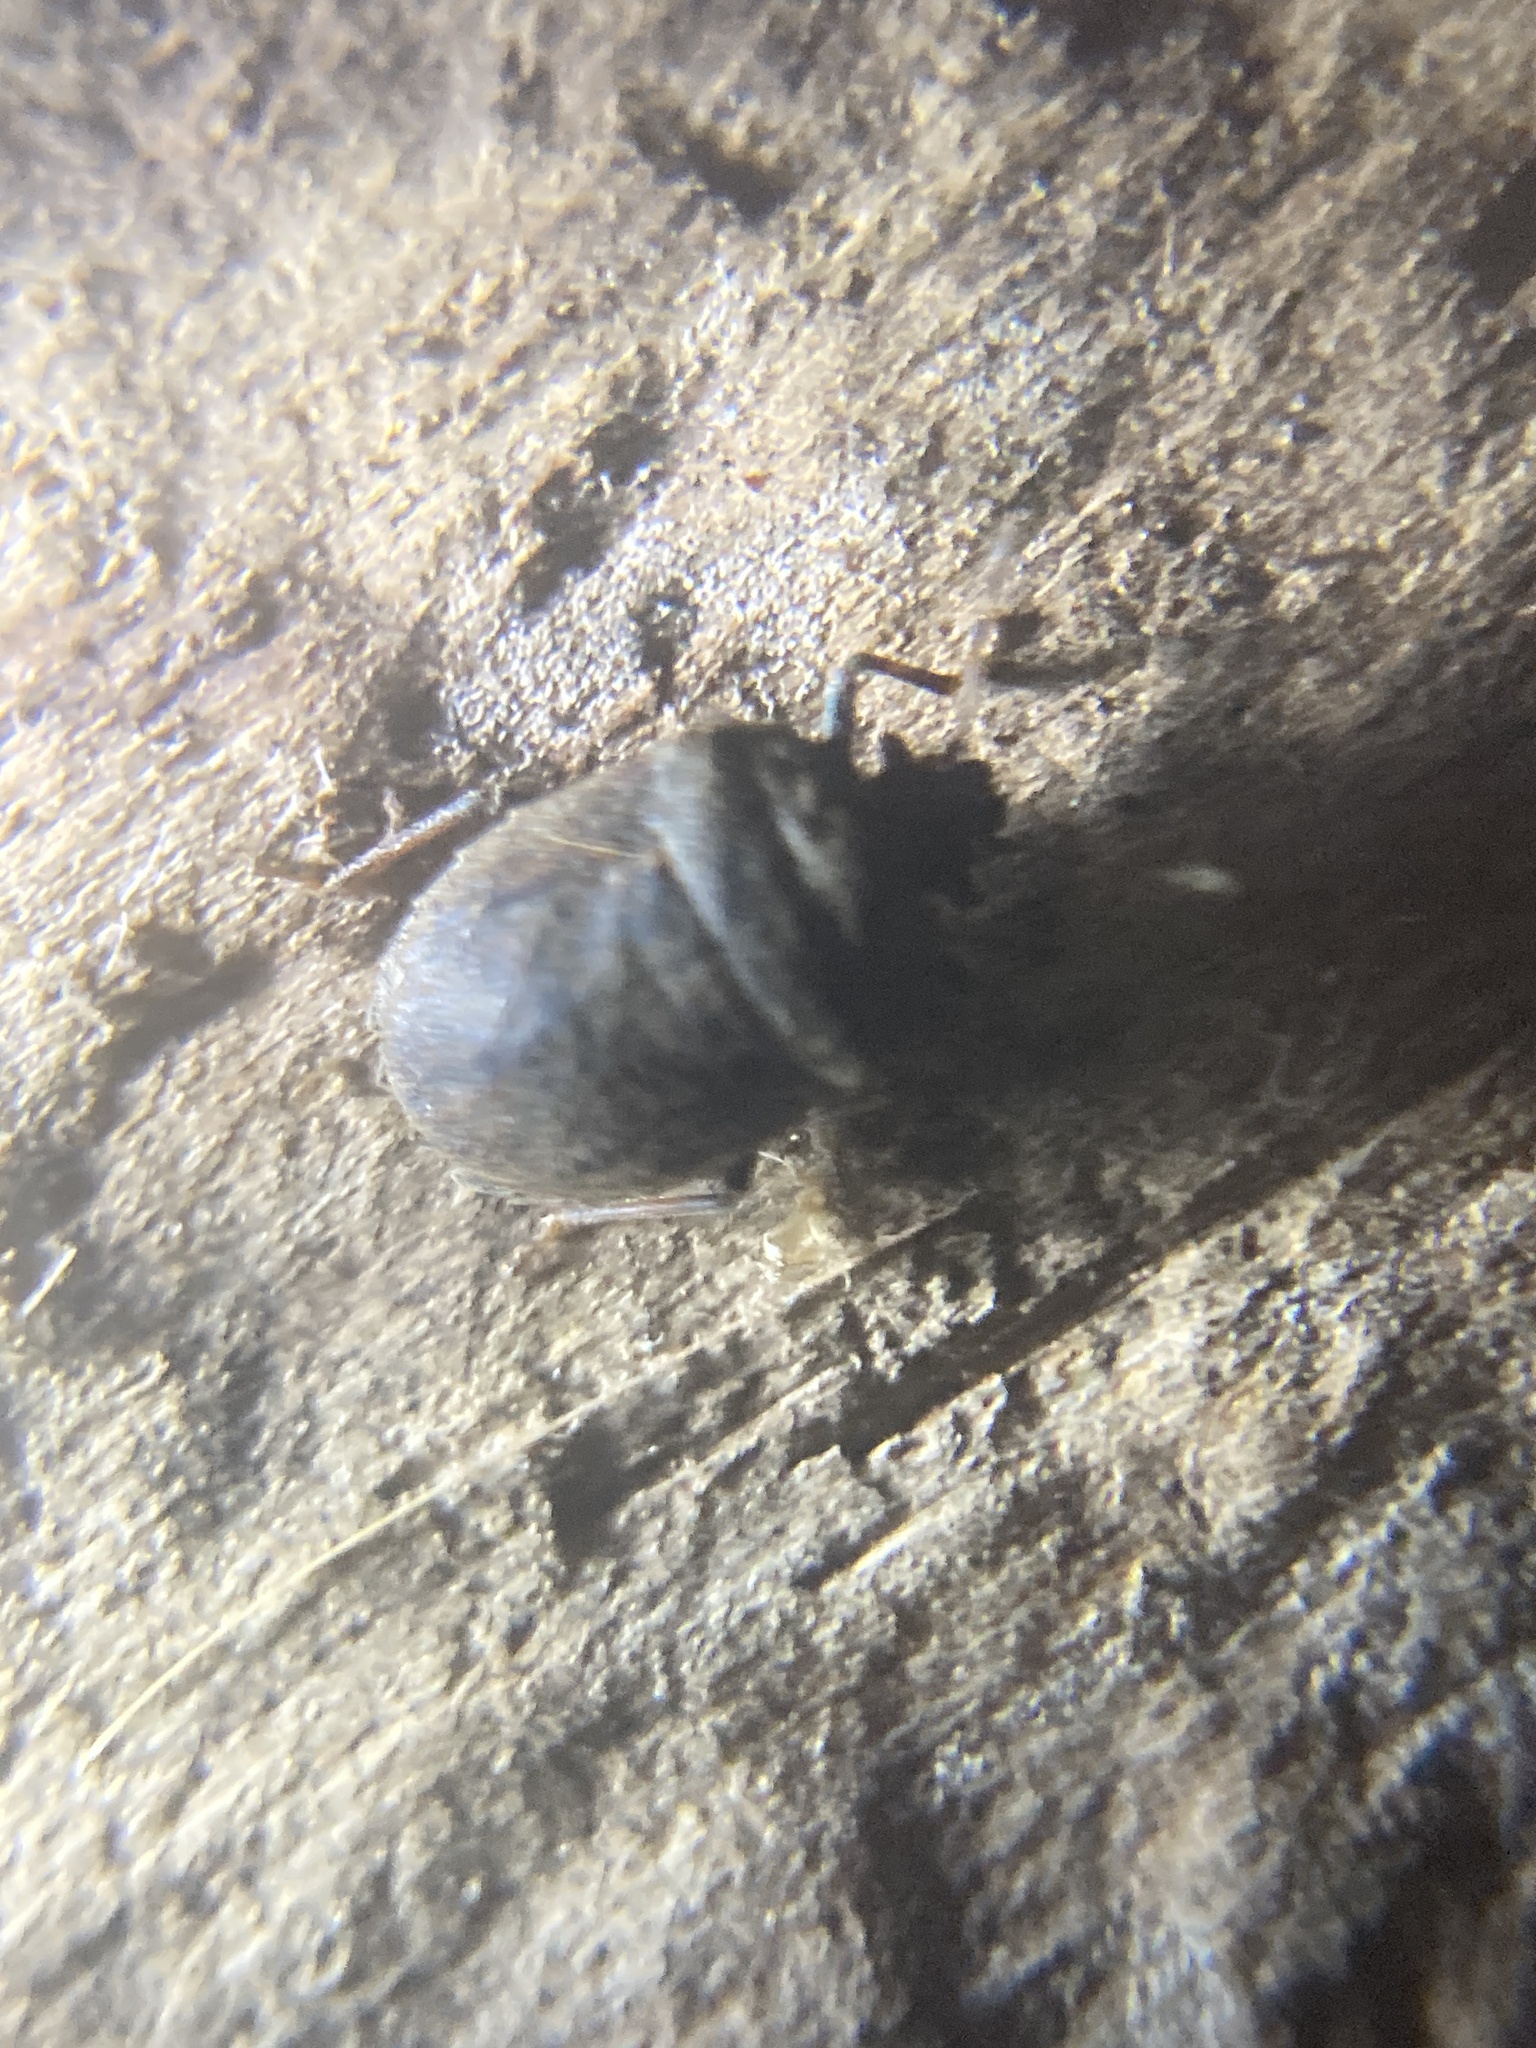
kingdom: Animalia
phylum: Arthropoda
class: Insecta
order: Hemiptera
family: Pentatomidae
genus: Coracanthella
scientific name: Coracanthella geophila
